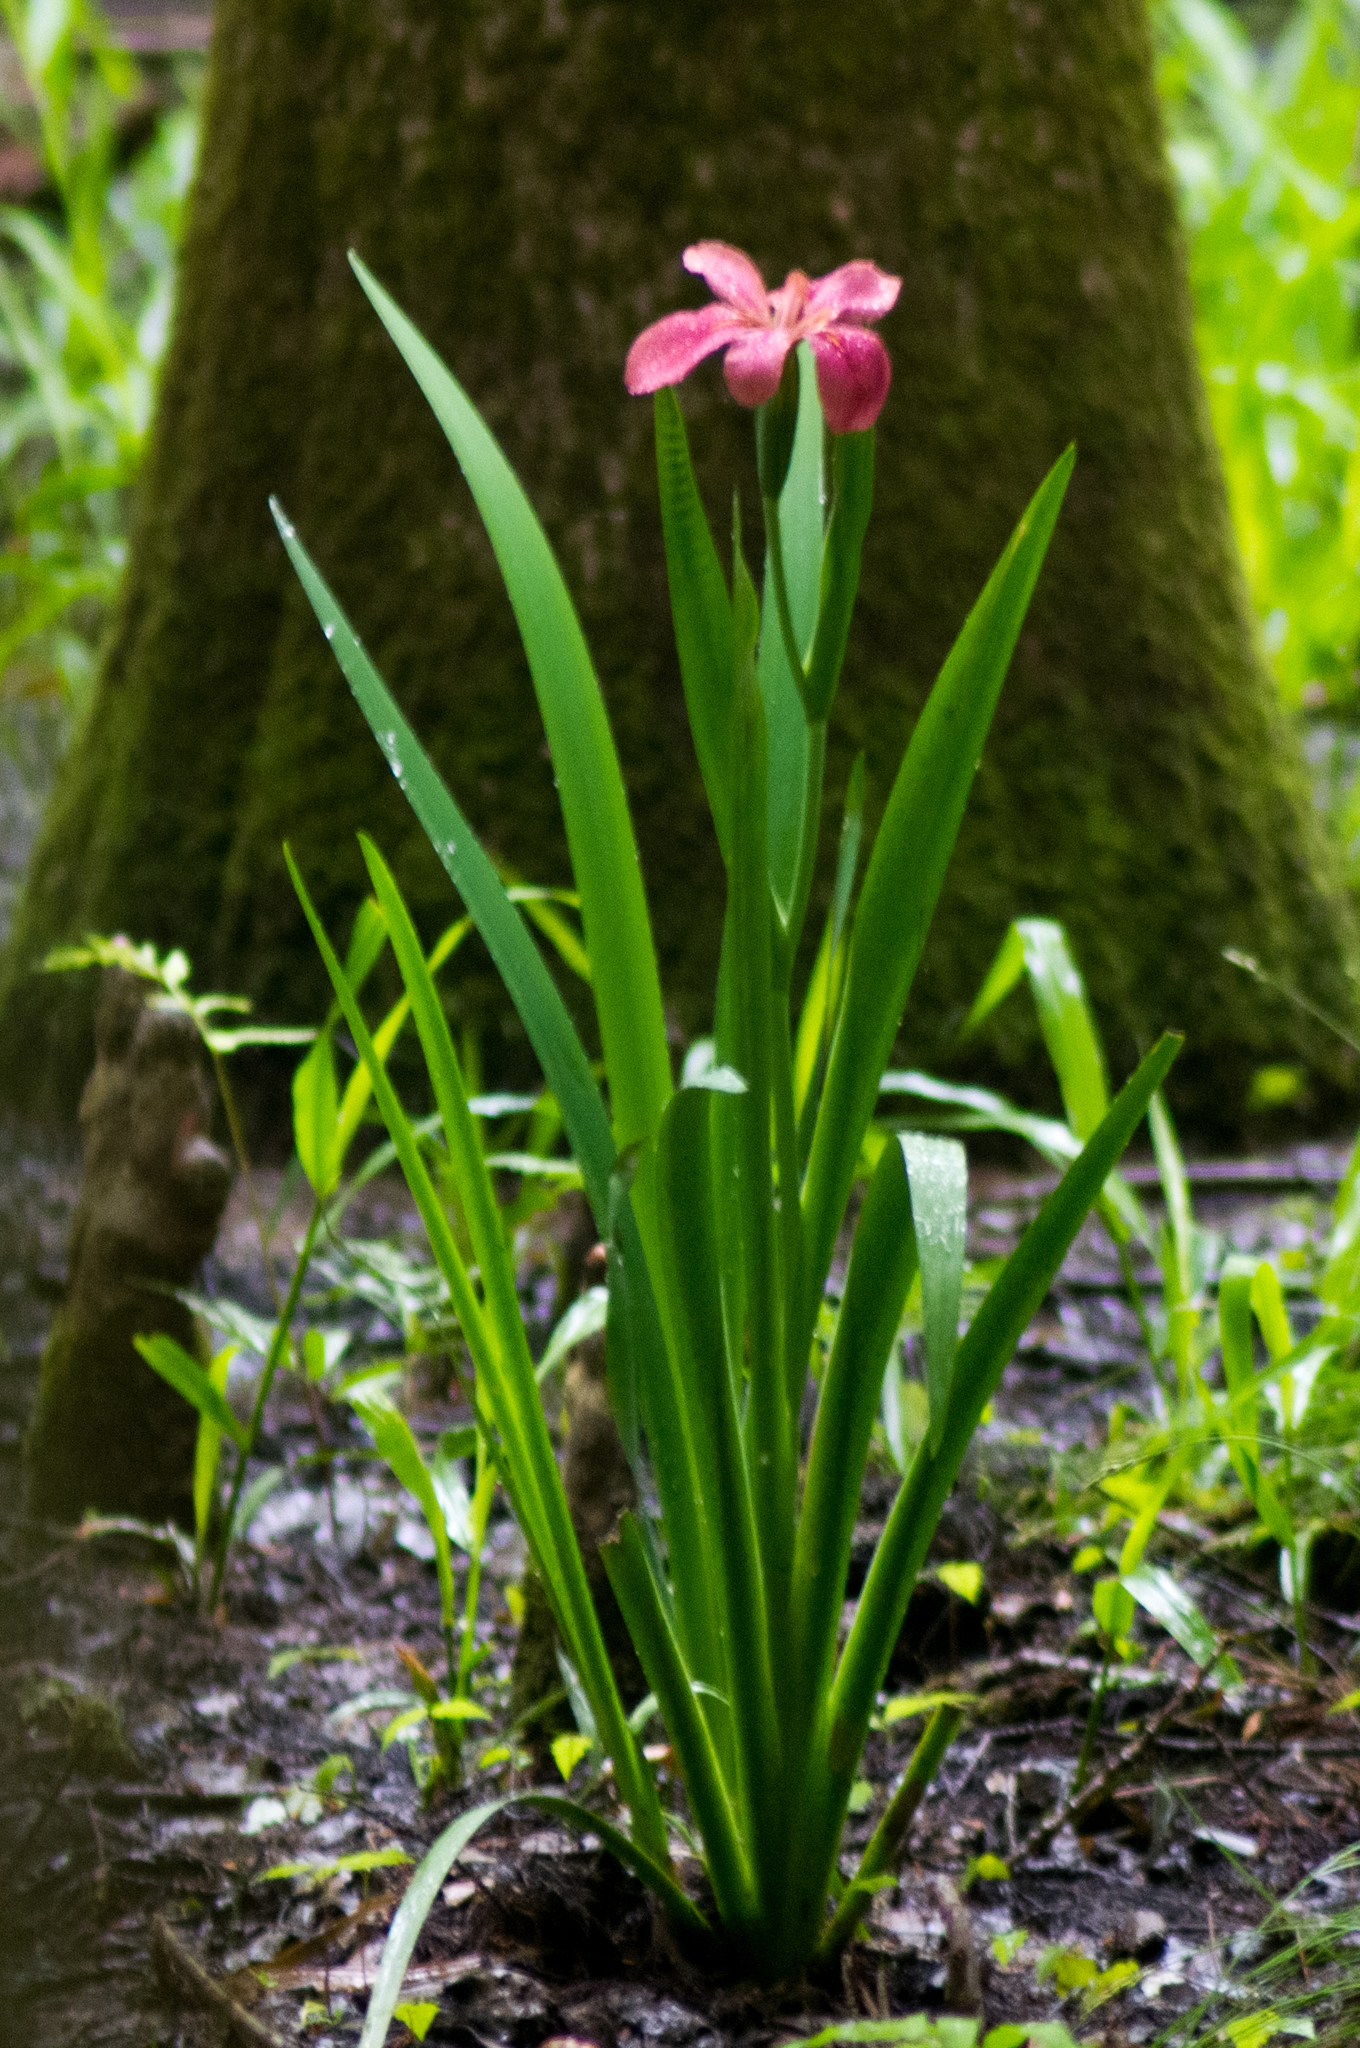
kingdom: Plantae
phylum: Tracheophyta
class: Liliopsida
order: Asparagales
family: Iridaceae
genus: Iris
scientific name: Iris fulva
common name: Copper iris
